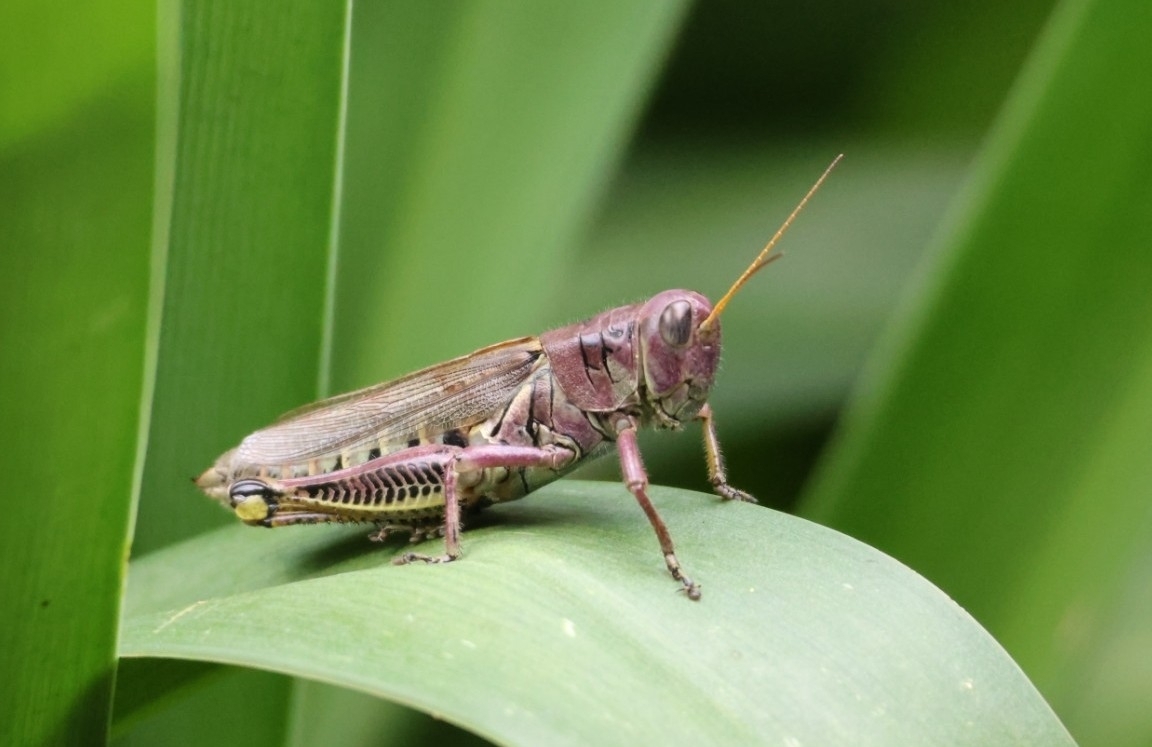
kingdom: Animalia
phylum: Arthropoda
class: Insecta
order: Orthoptera
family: Acrididae
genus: Melanoplus
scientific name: Melanoplus differentialis
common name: Differential grasshopper
